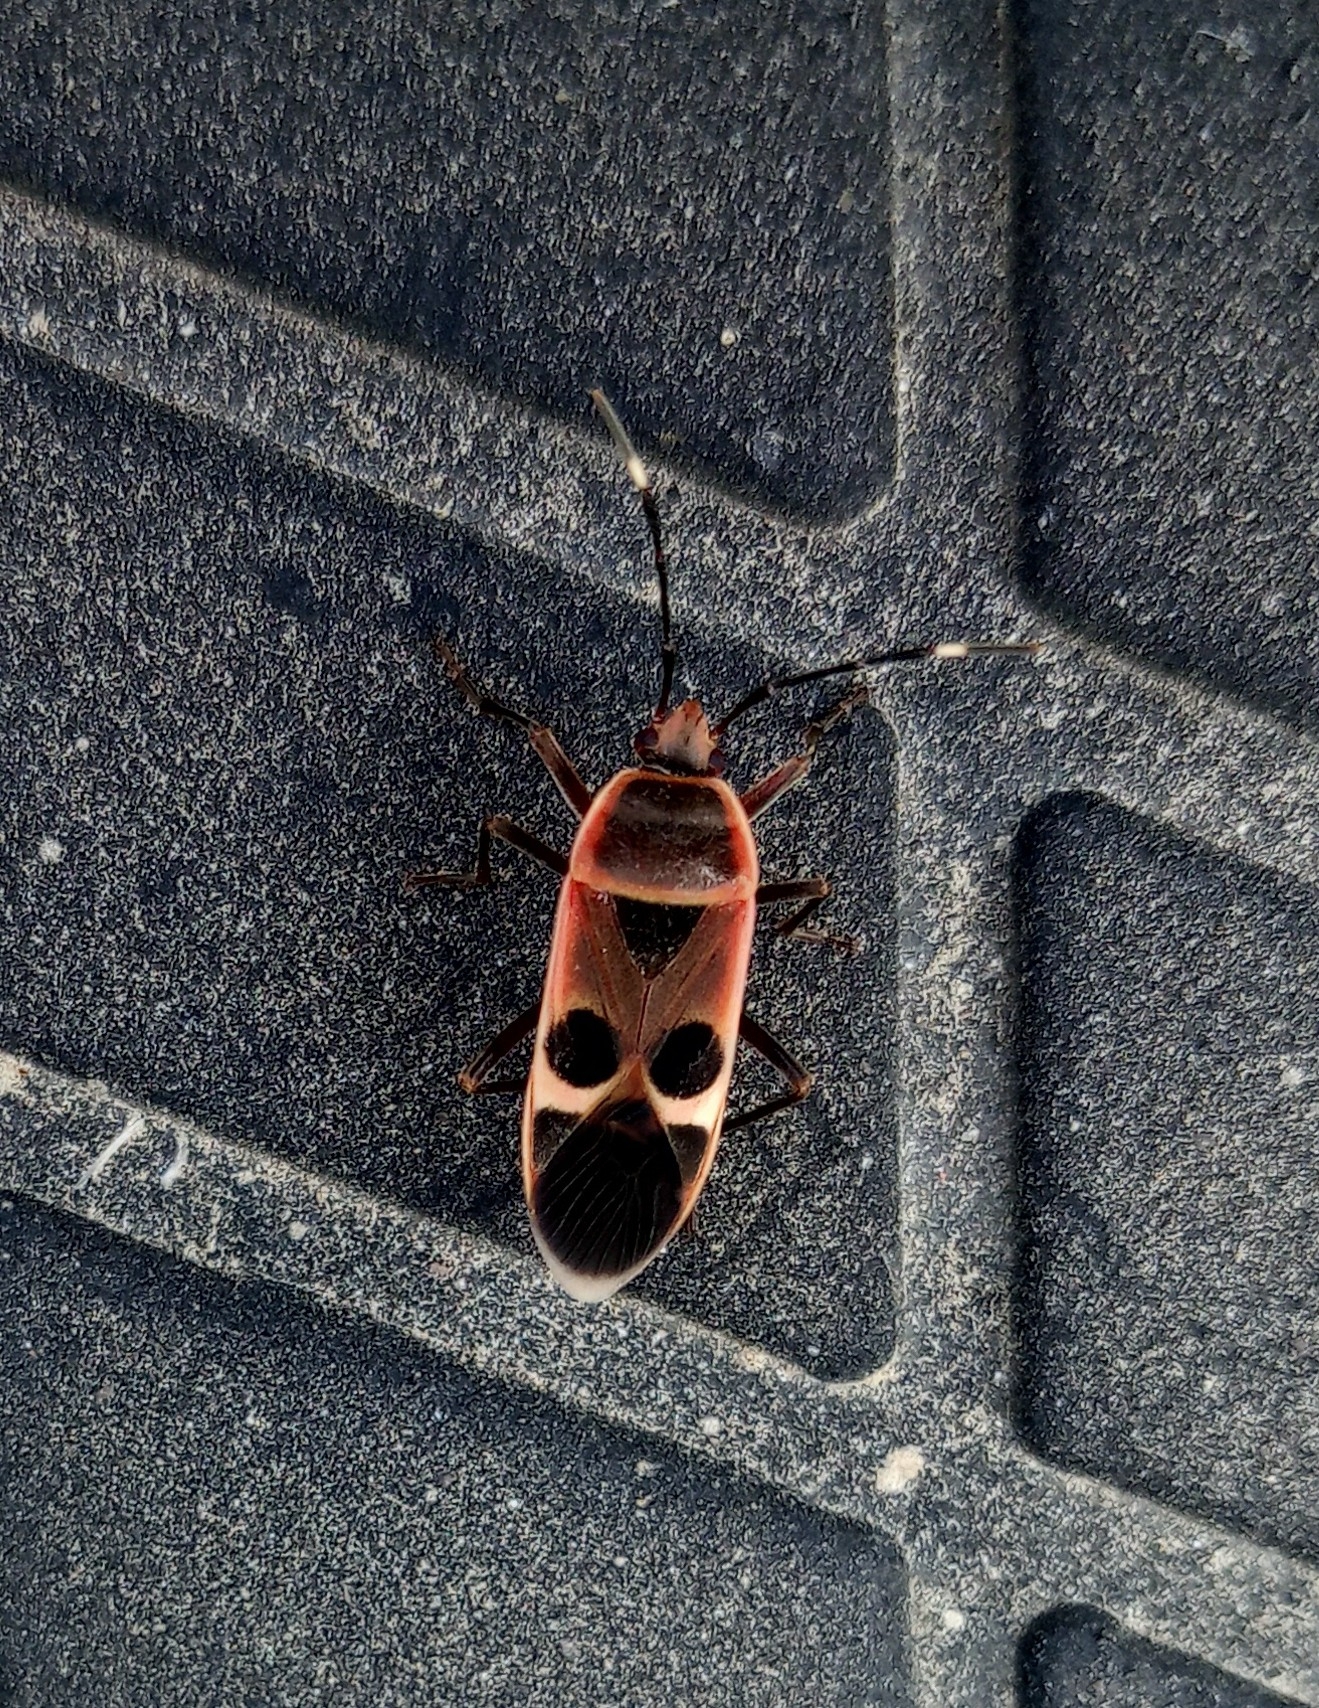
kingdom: Animalia
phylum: Arthropoda
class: Insecta
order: Hemiptera
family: Largidae
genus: Physopelta
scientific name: Physopelta gutta
